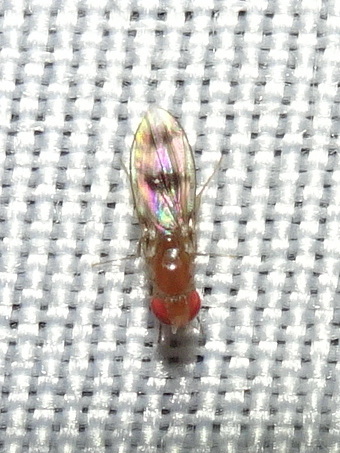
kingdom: Animalia
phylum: Arthropoda
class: Insecta
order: Diptera
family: Drosophilidae
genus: Chymomyza
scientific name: Chymomyza amoena
